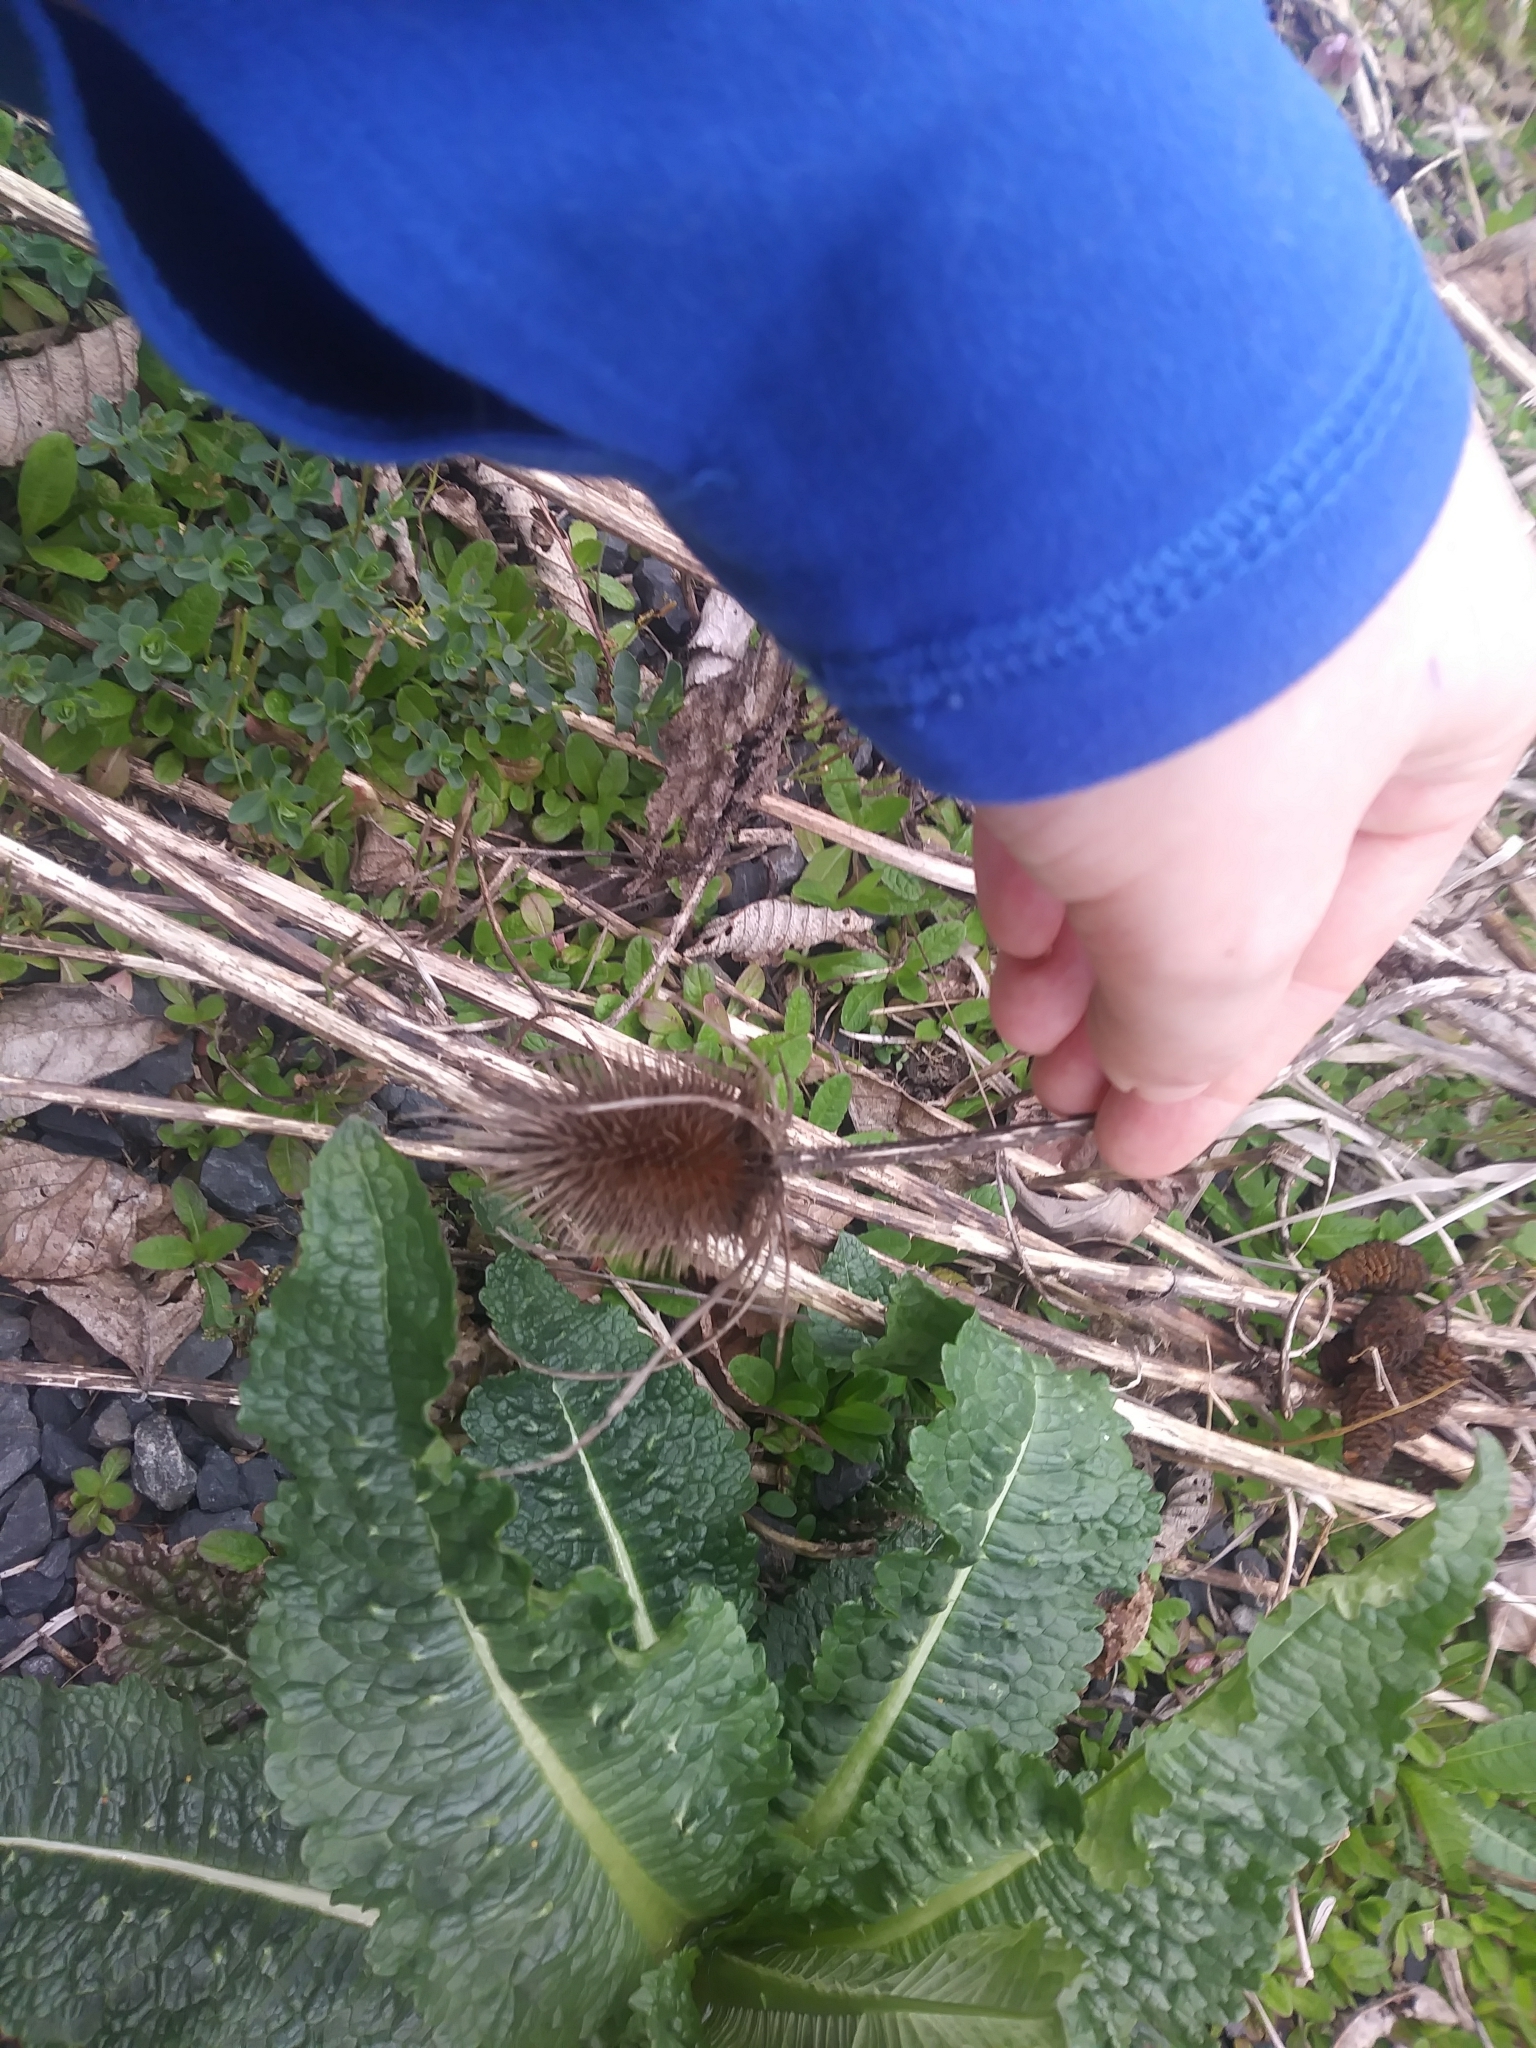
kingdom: Plantae
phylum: Tracheophyta
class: Magnoliopsida
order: Dipsacales
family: Caprifoliaceae
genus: Dipsacus
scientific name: Dipsacus fullonum
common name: Teasel
